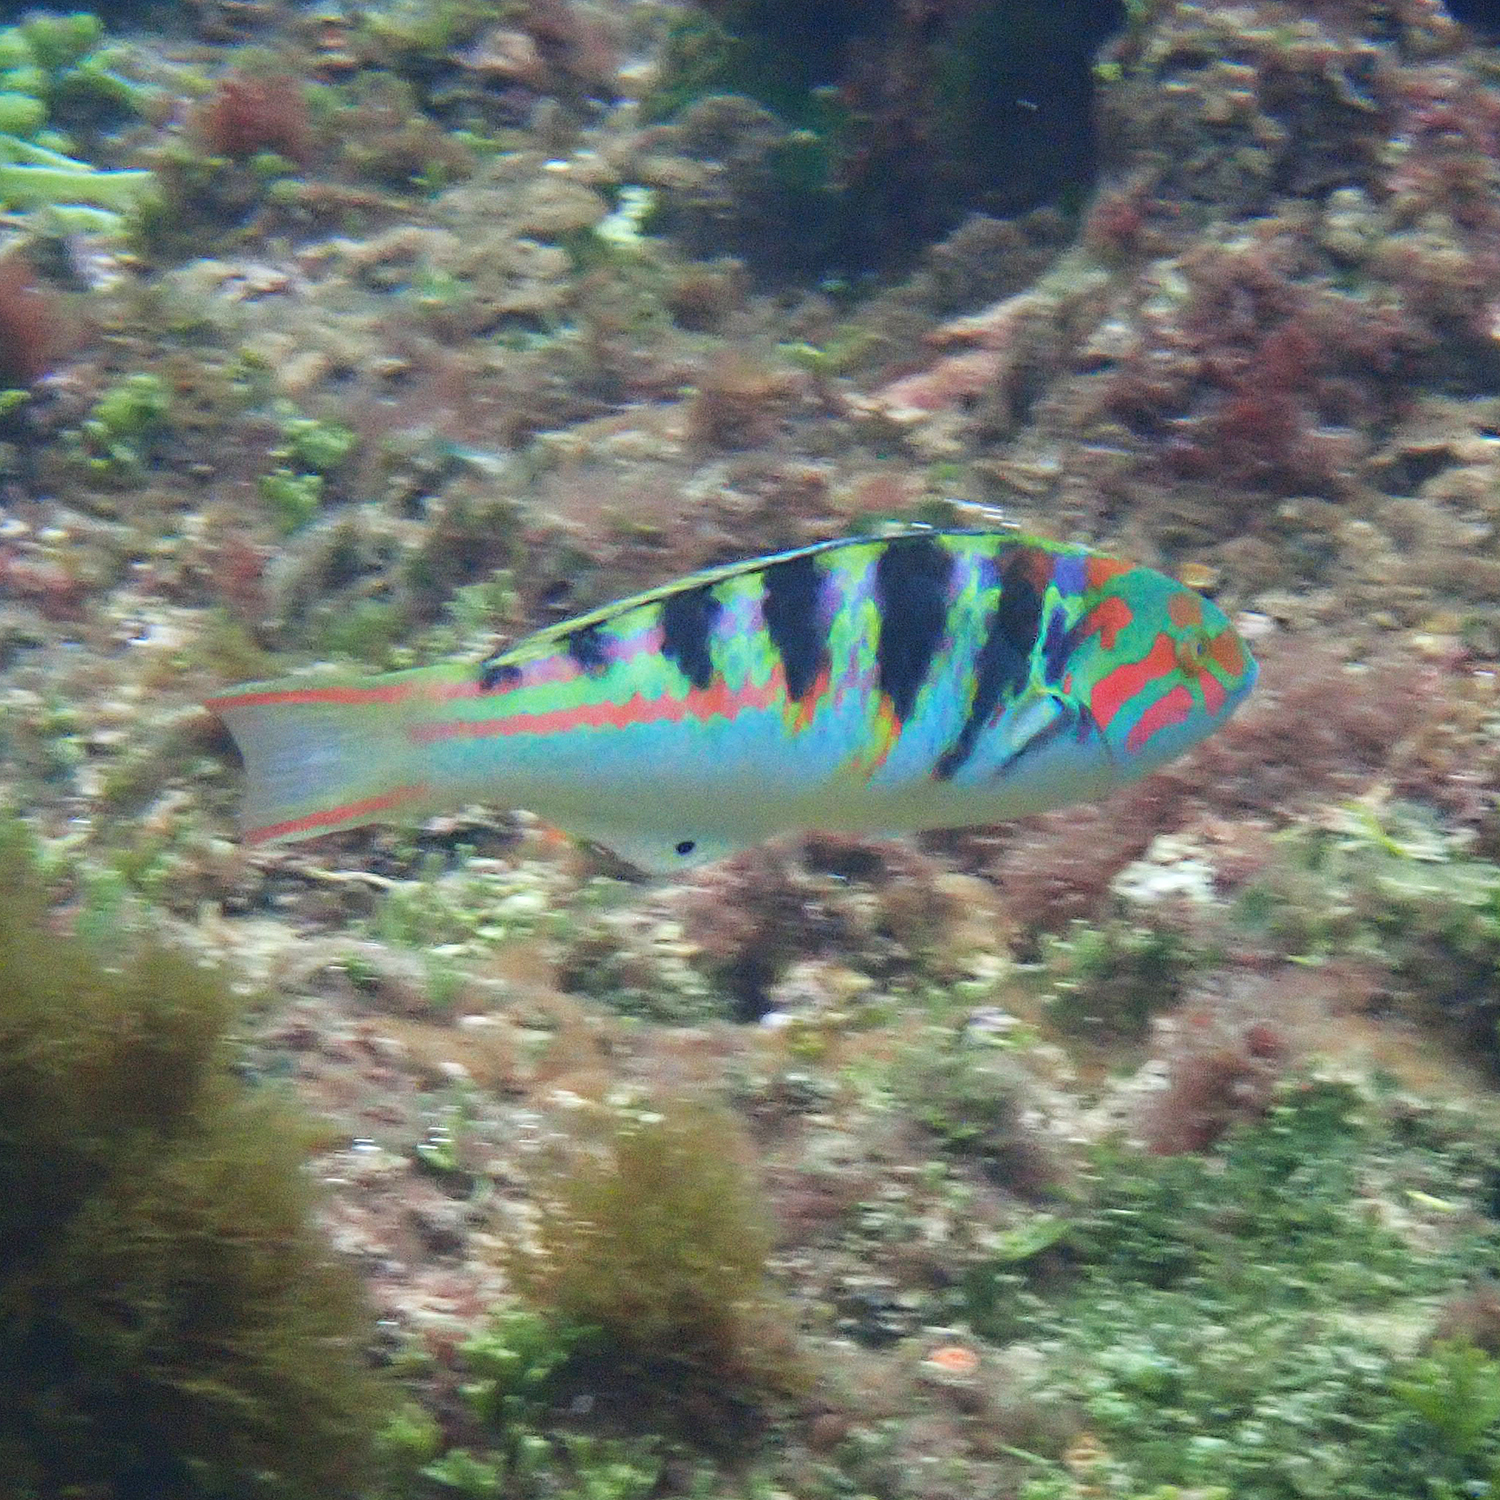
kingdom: Animalia
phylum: Chordata
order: Perciformes
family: Labridae
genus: Thalassoma
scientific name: Thalassoma hardwicke
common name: Sixbar wrasse
